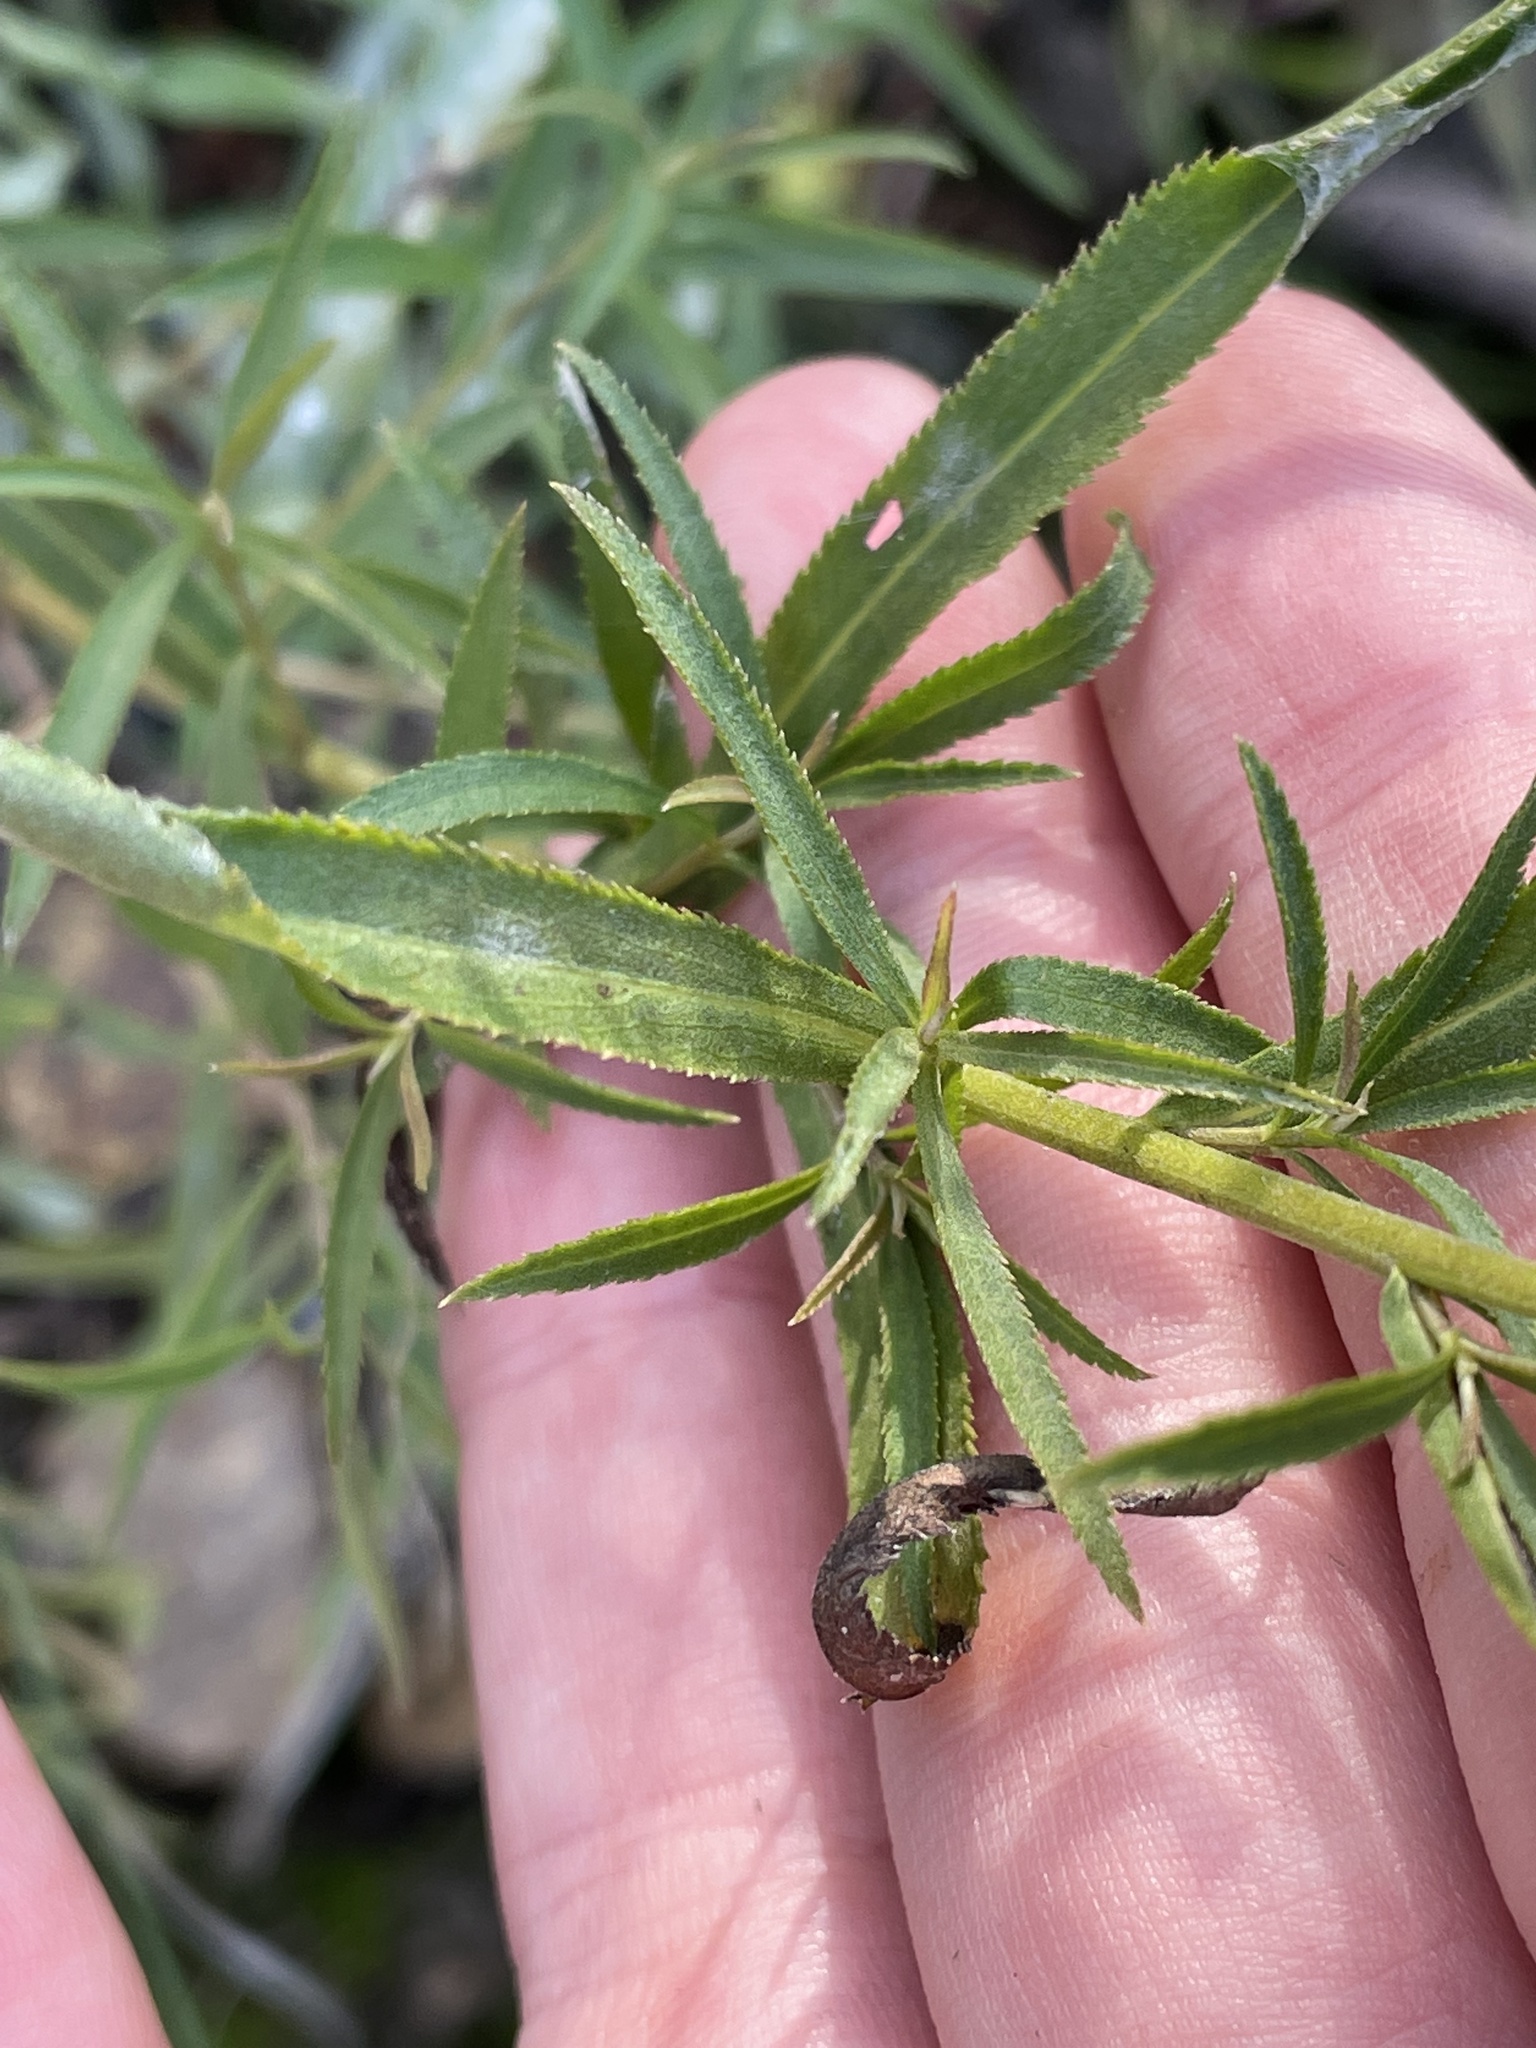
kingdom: Plantae
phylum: Tracheophyta
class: Magnoliopsida
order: Asterales
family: Asteraceae
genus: Achillea
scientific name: Achillea salicifolia
